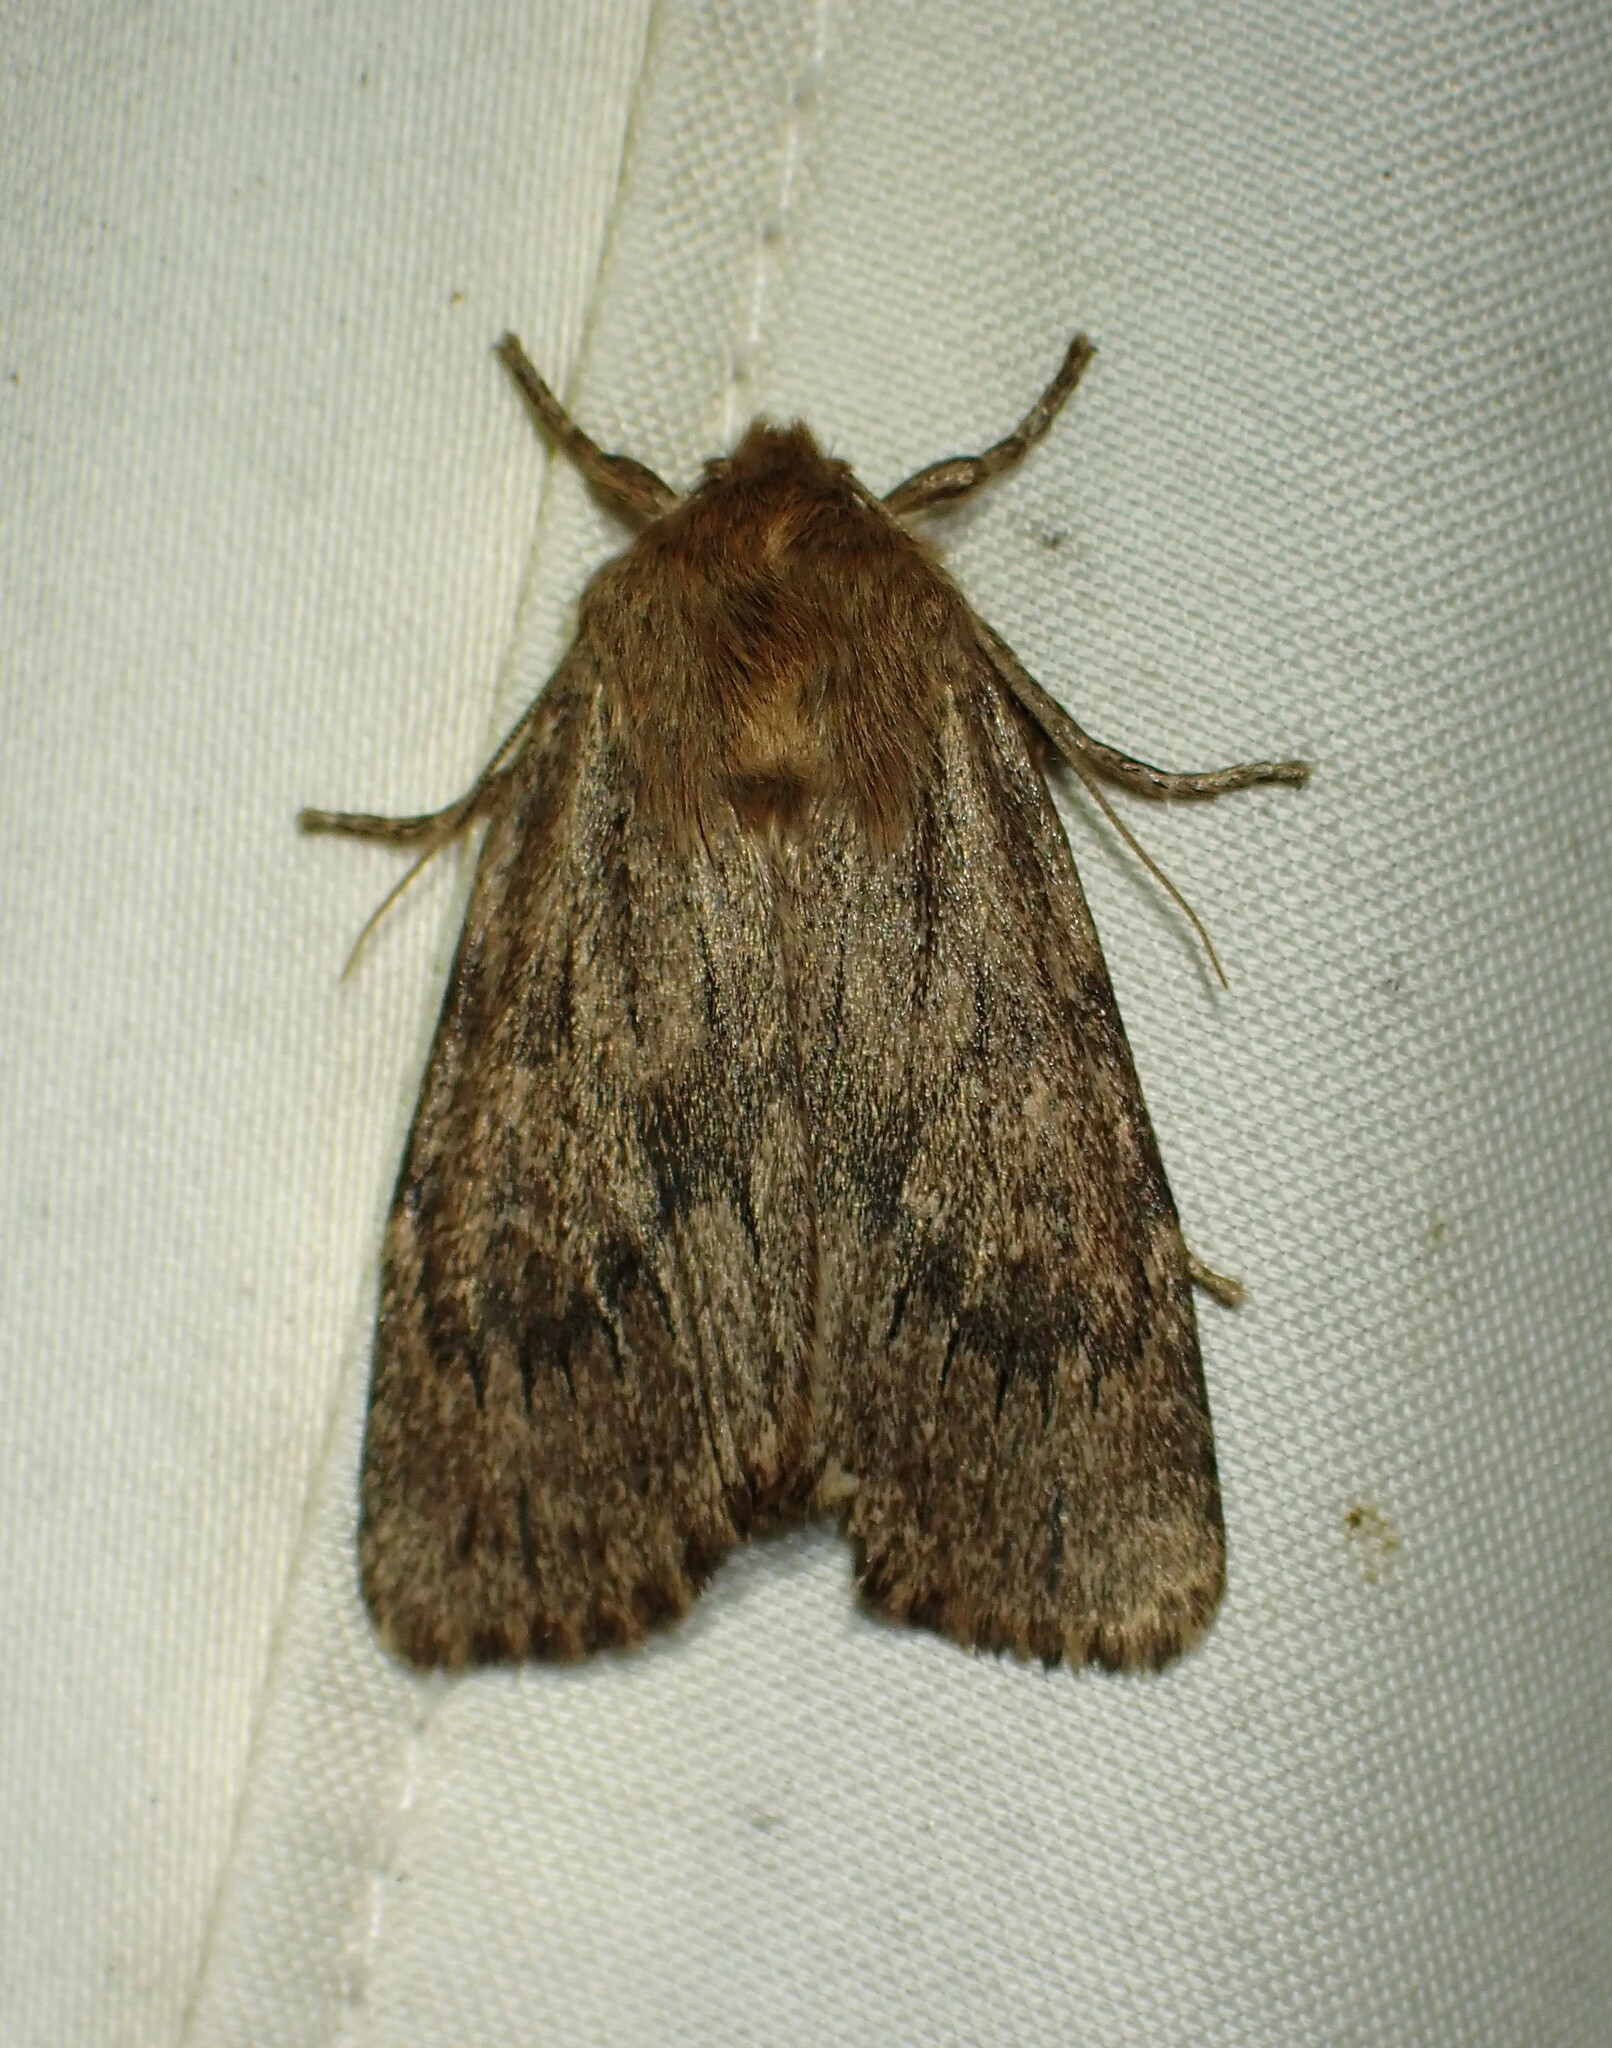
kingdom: Animalia
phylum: Arthropoda
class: Insecta
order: Lepidoptera
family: Noctuidae
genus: Ufeus
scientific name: Ufeus satyricus
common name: Brown satyr moth
